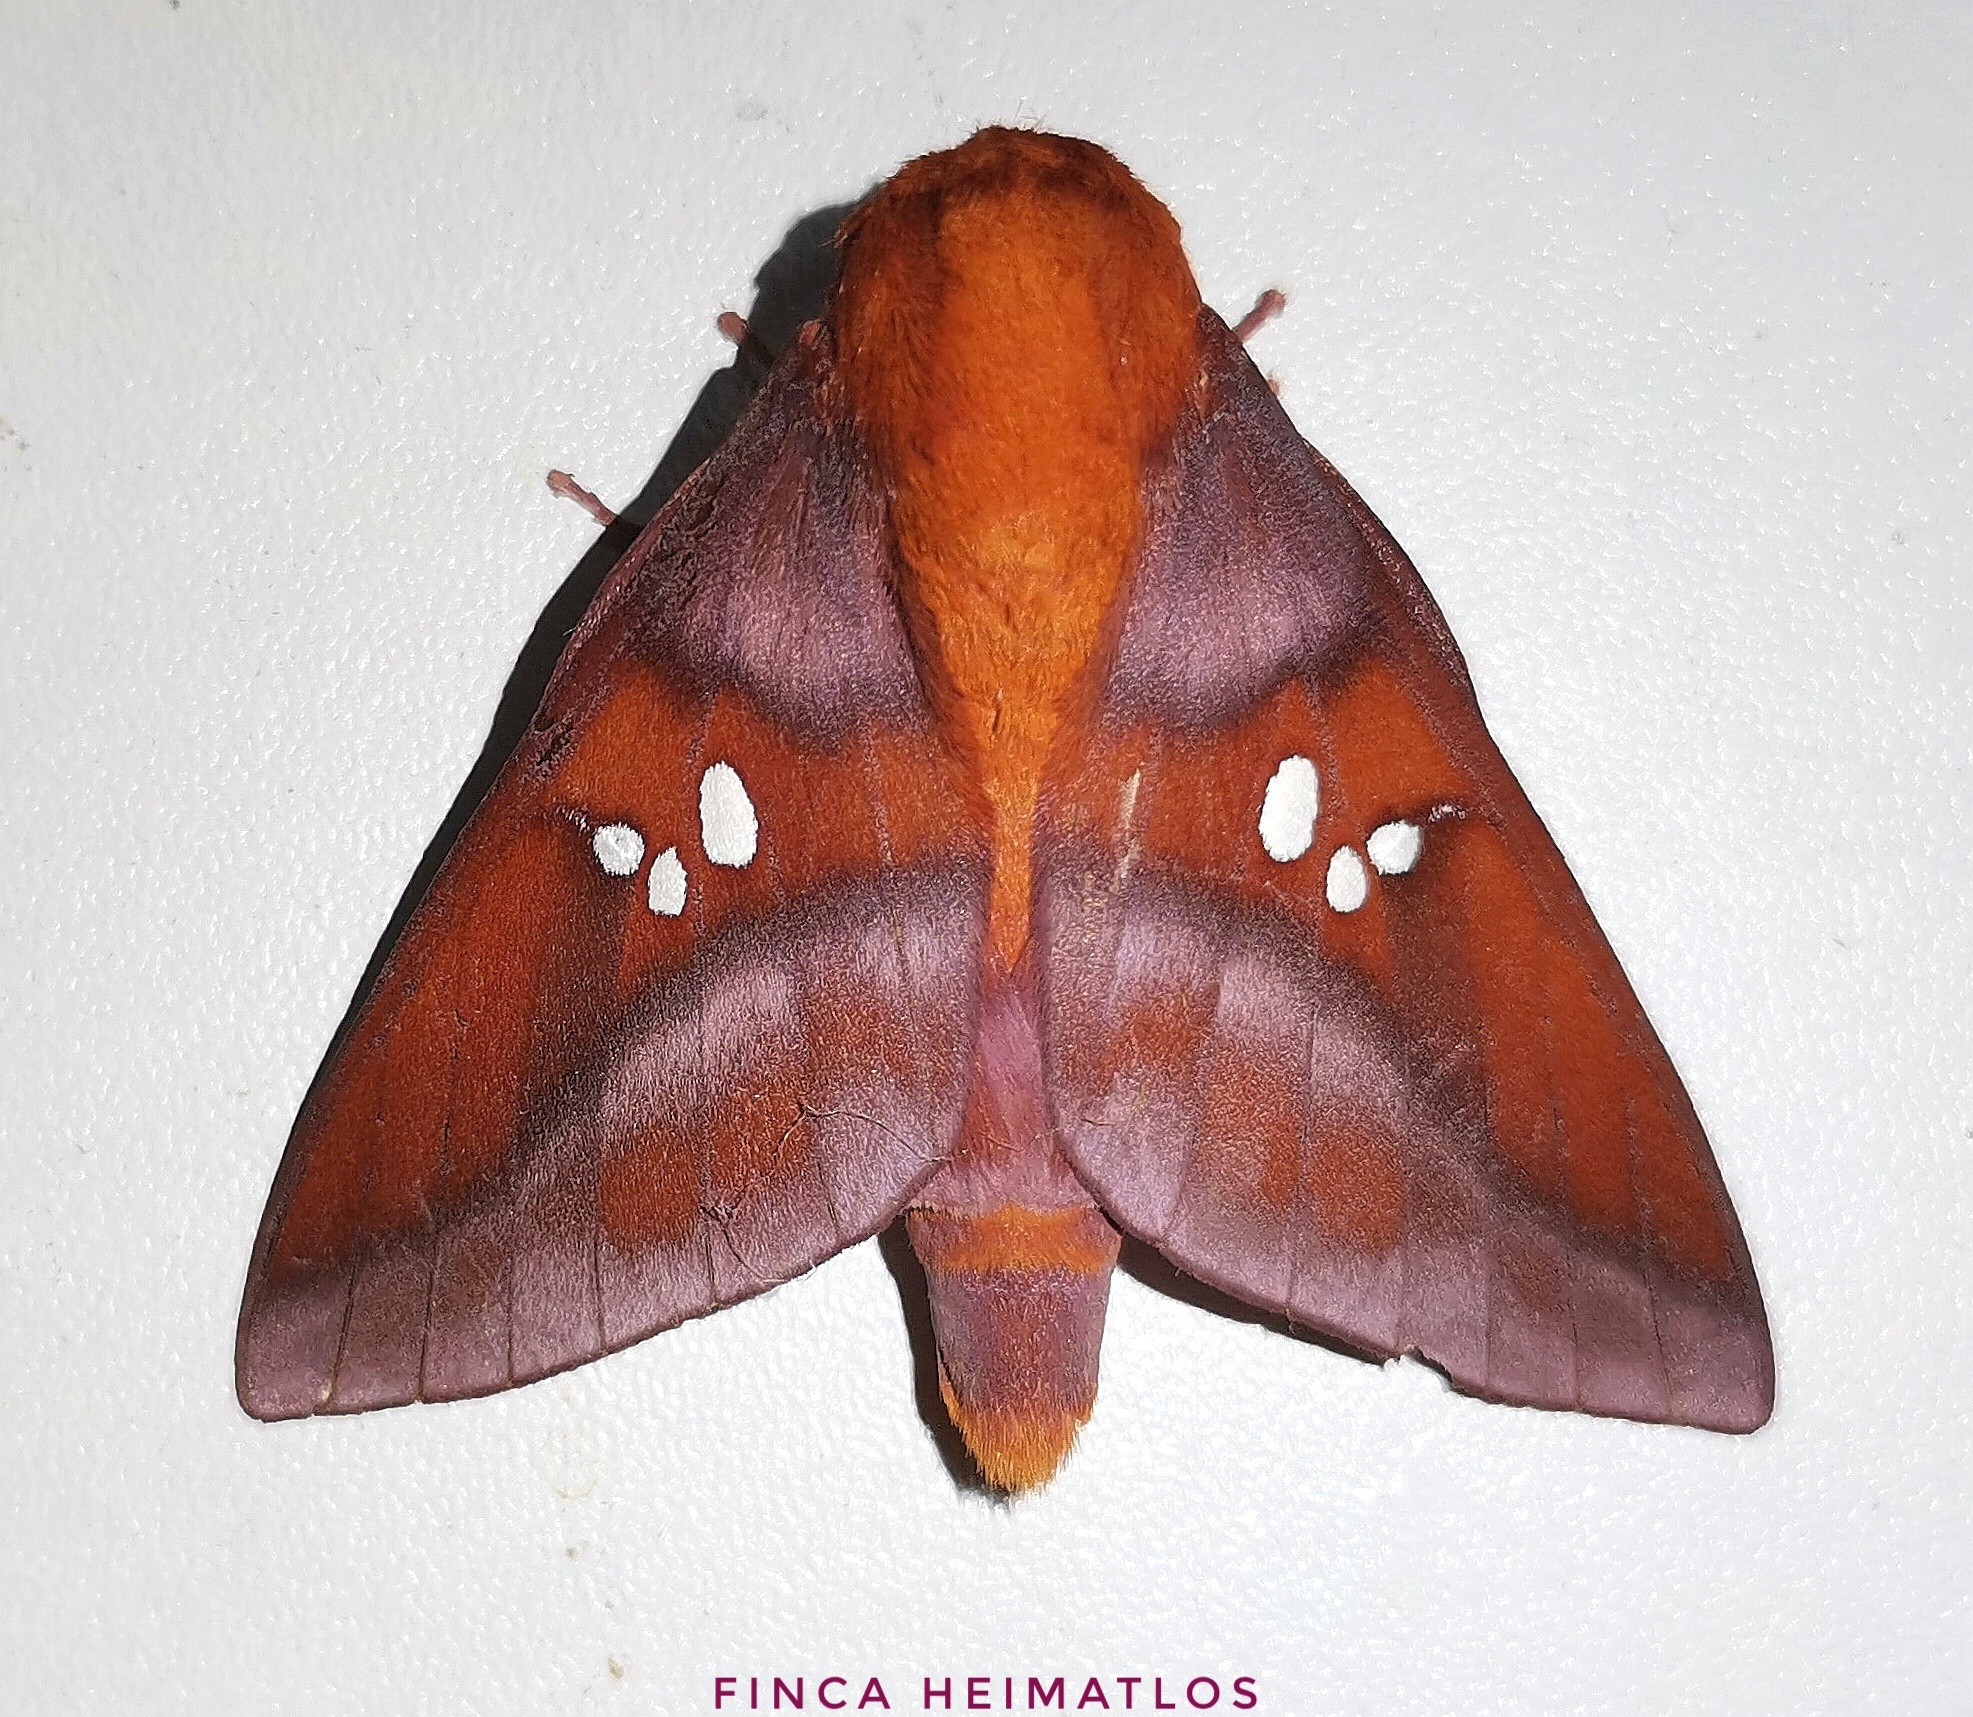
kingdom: Animalia
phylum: Arthropoda
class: Insecta
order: Lepidoptera
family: Saturniidae
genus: Adelowalkeria
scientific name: Adelowalkeria kitchingi
